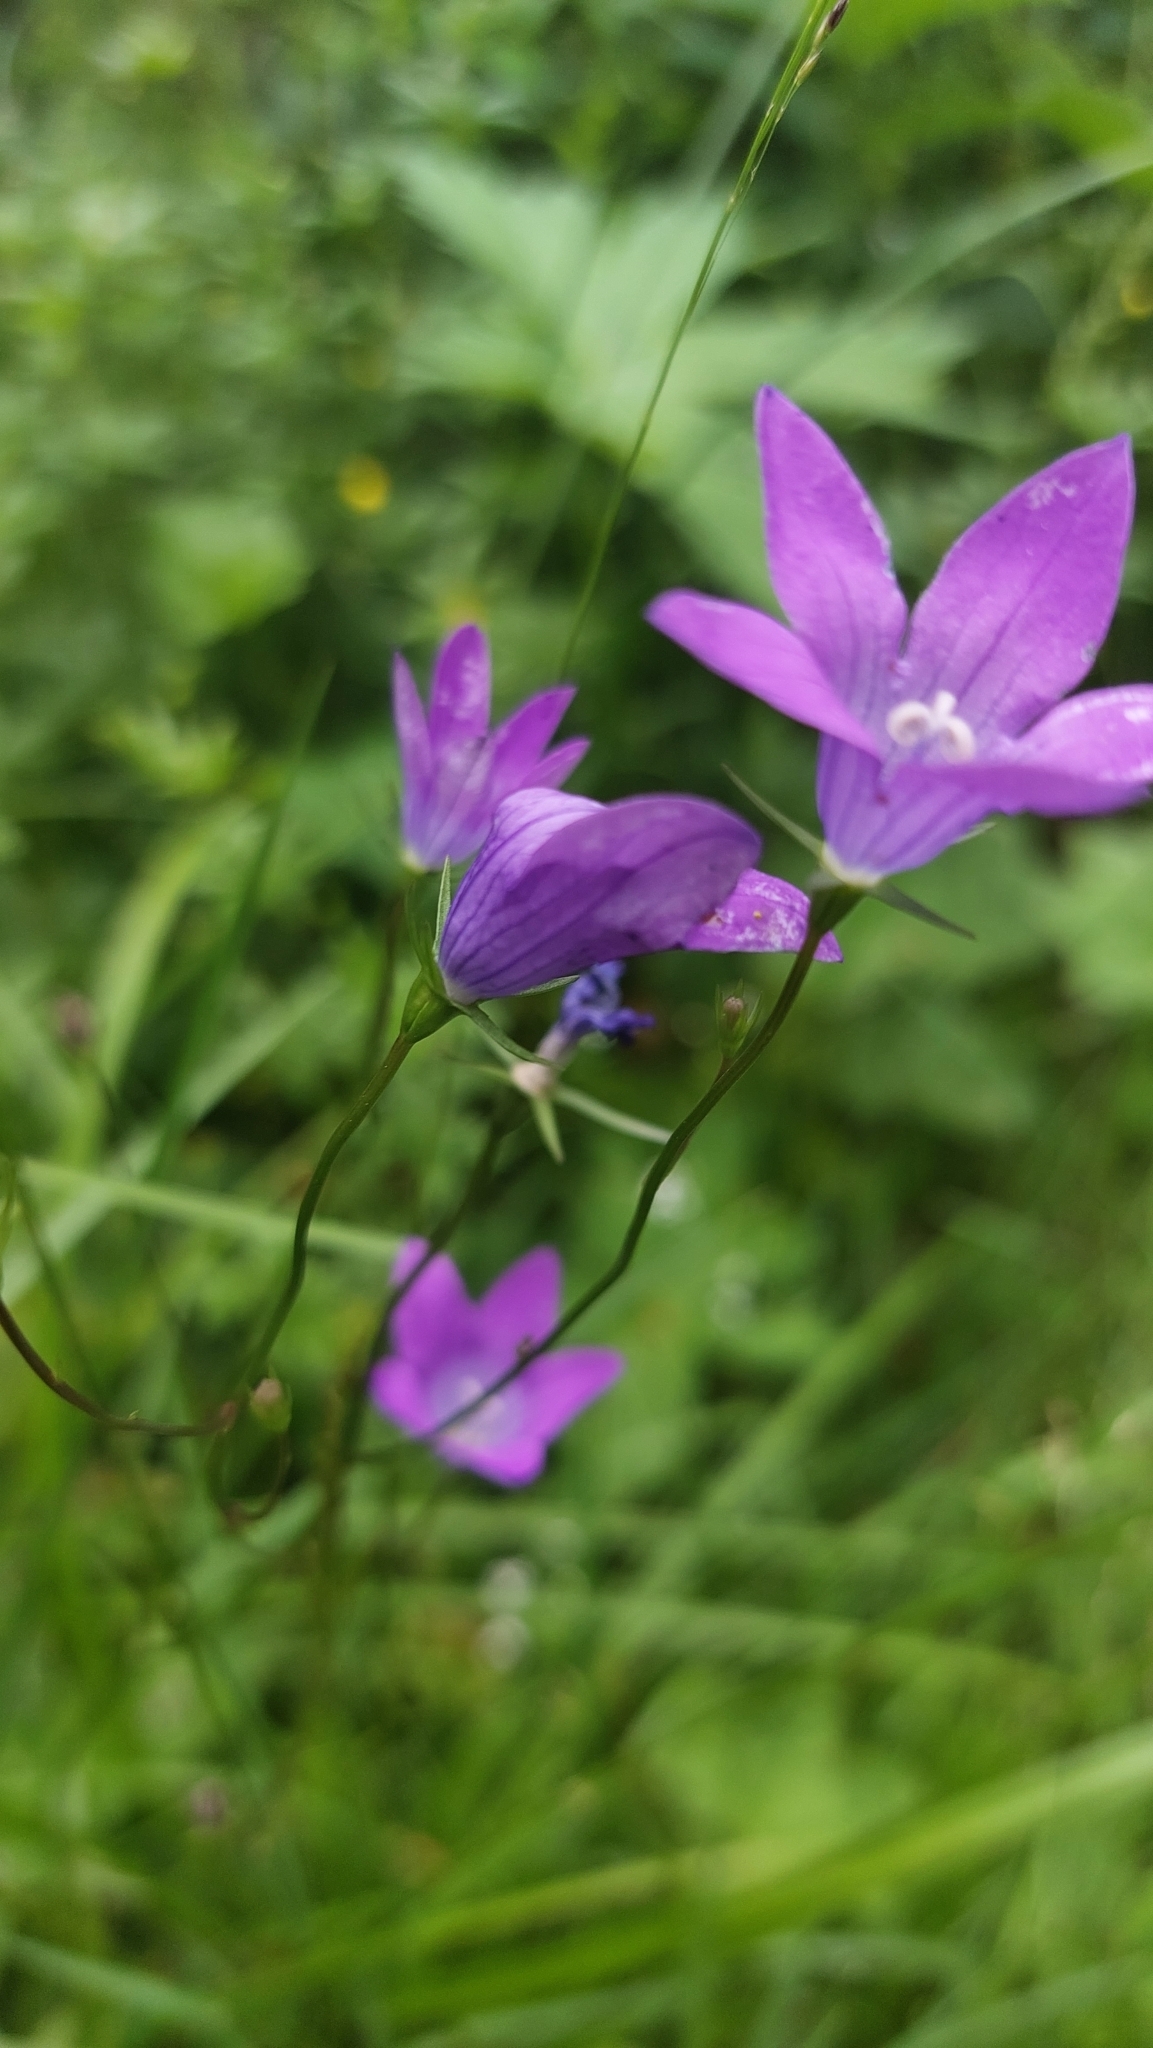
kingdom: Plantae
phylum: Tracheophyta
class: Magnoliopsida
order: Asterales
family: Campanulaceae
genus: Campanula
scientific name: Campanula patula
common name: Spreading bellflower
